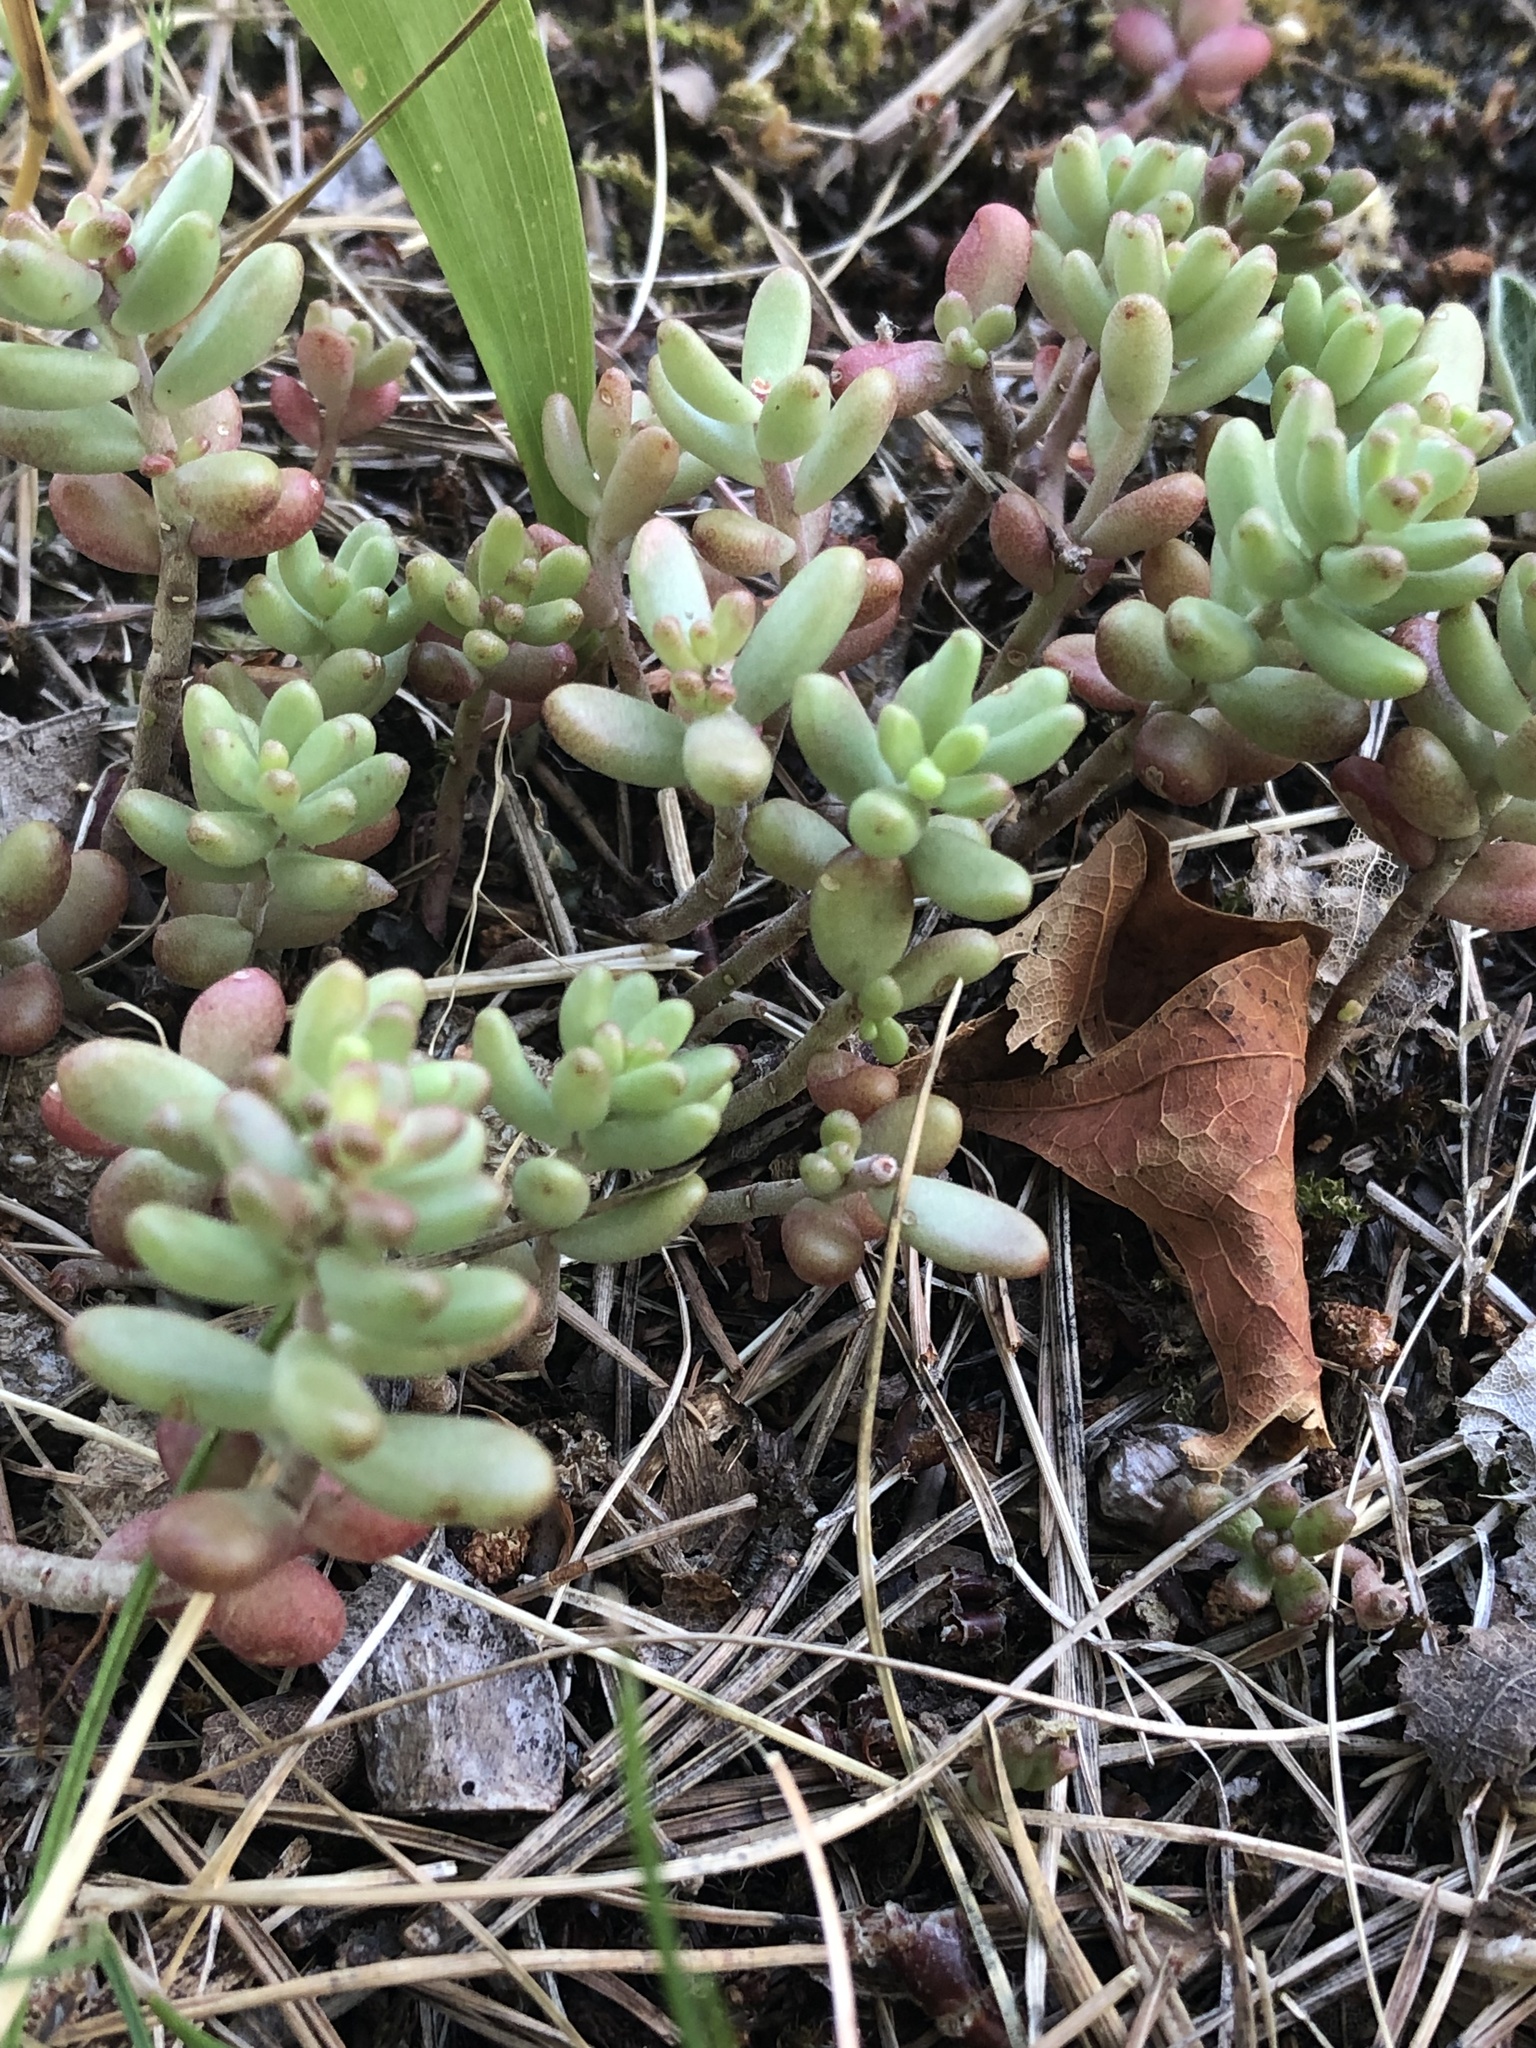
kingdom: Plantae
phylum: Tracheophyta
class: Magnoliopsida
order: Saxifragales
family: Crassulaceae
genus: Sedum
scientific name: Sedum album
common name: White stonecrop
